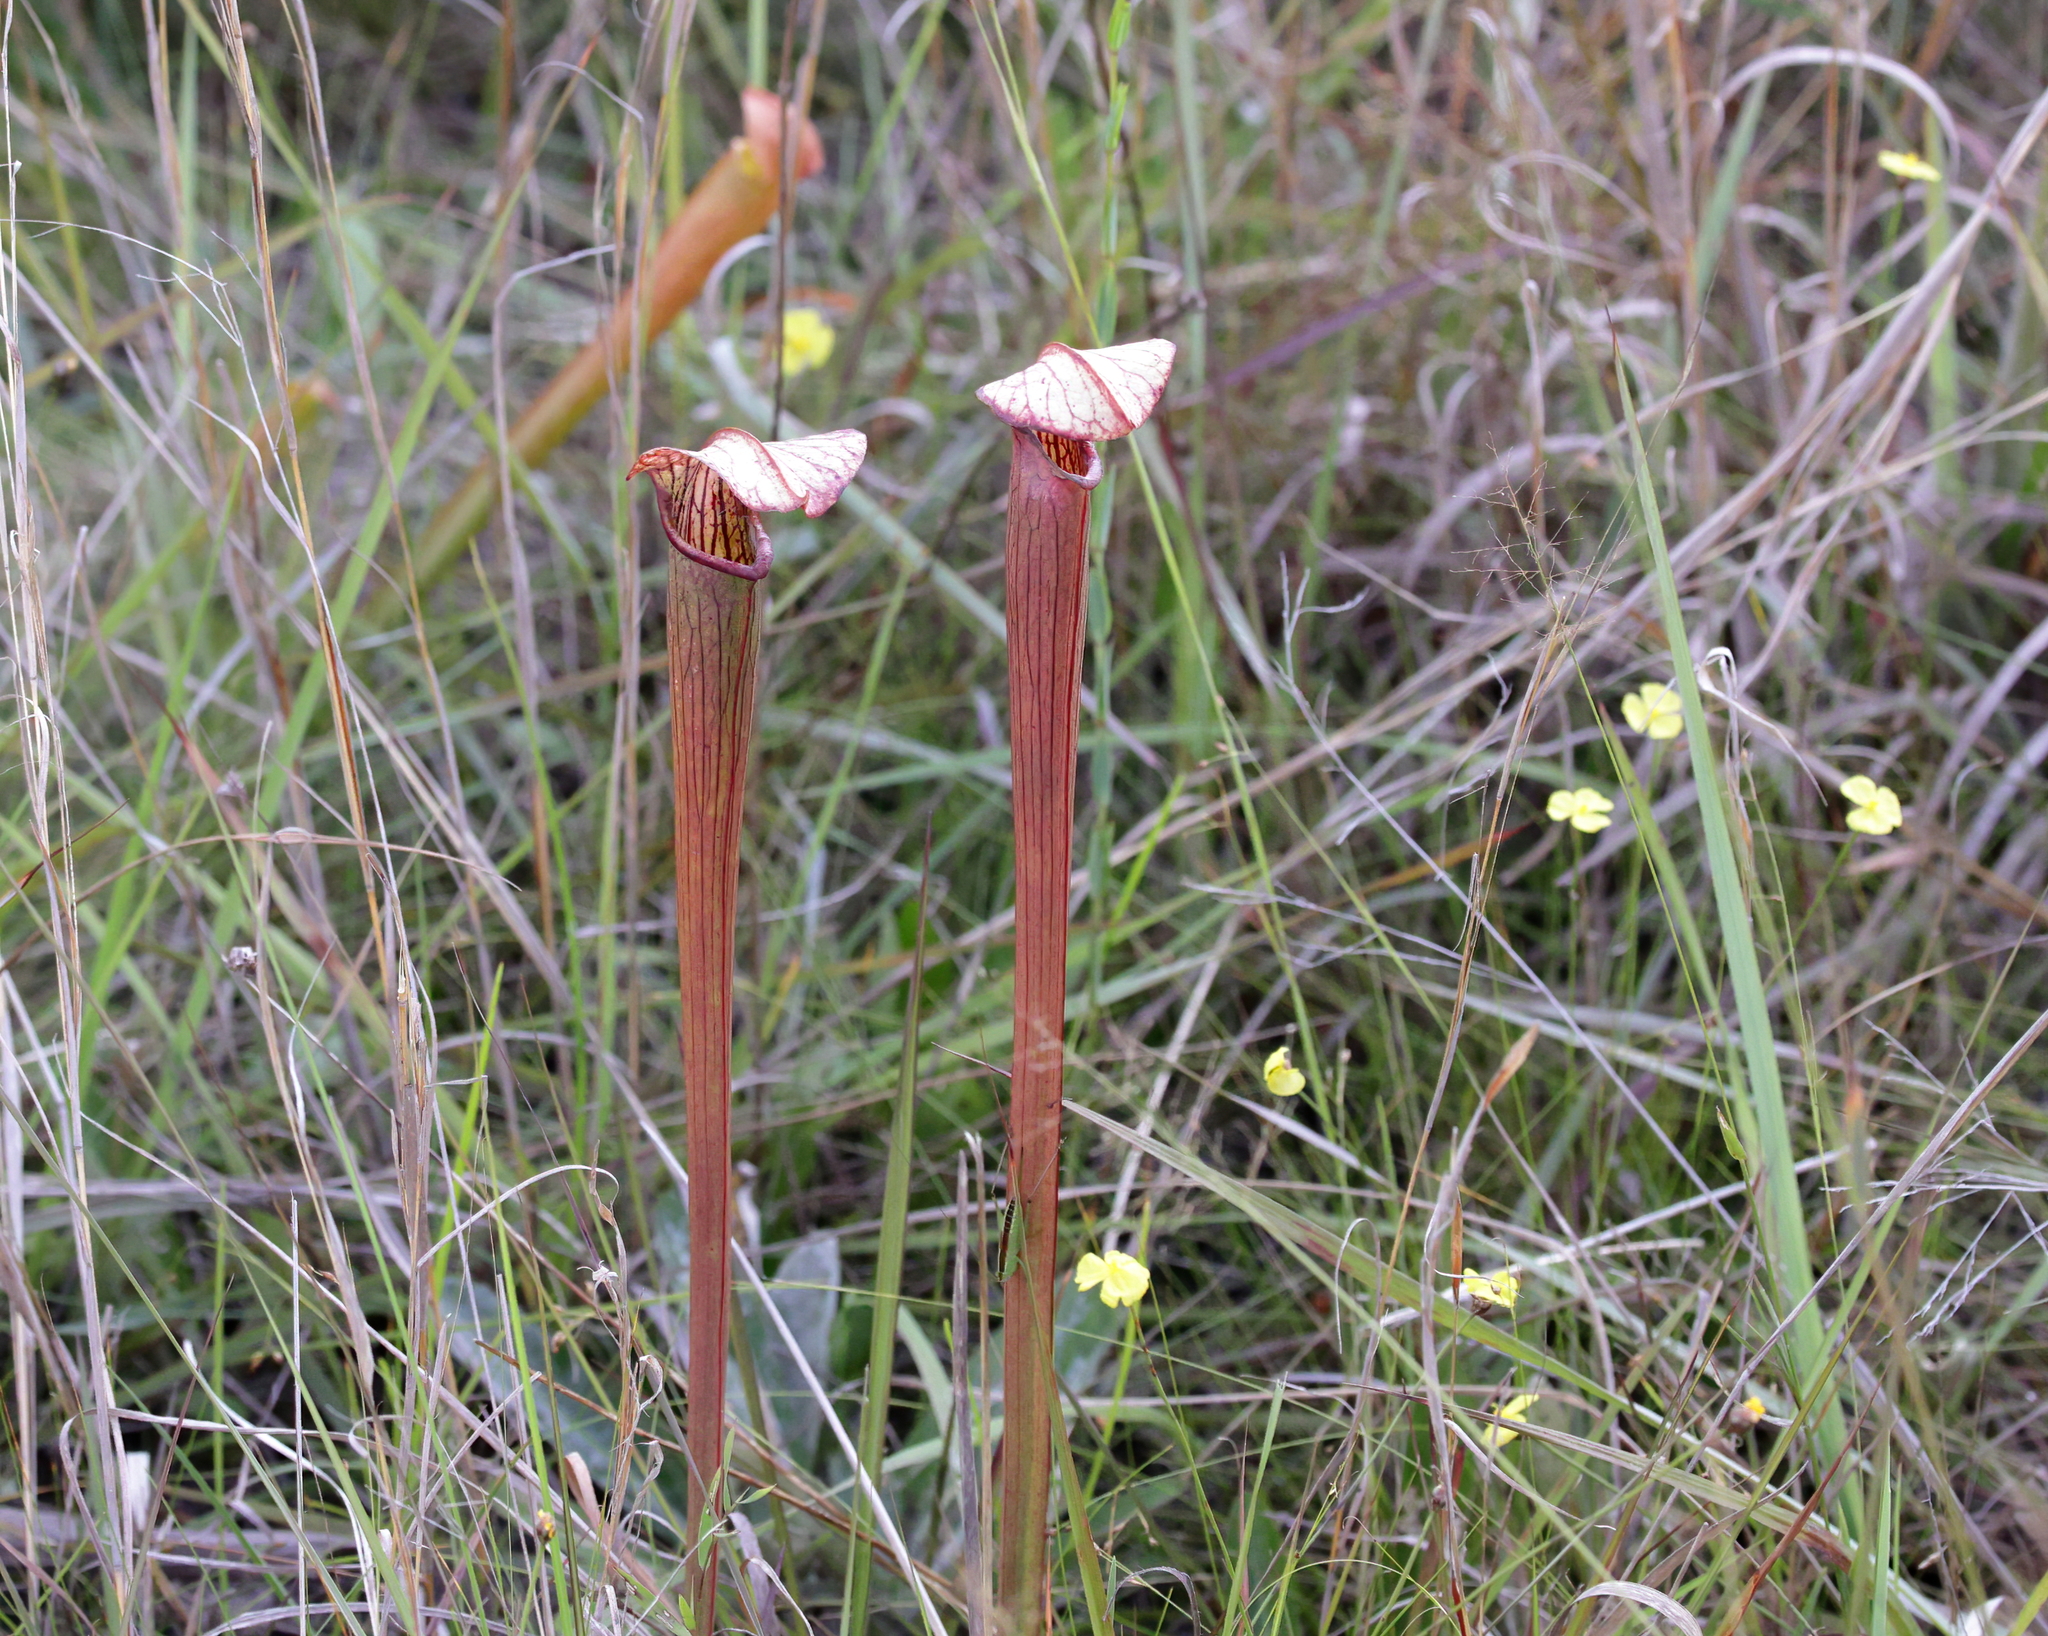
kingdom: Plantae
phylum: Tracheophyta
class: Magnoliopsida
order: Ericales
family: Sarraceniaceae
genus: Sarracenia
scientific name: Sarracenia alata
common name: Yellow trumpets
